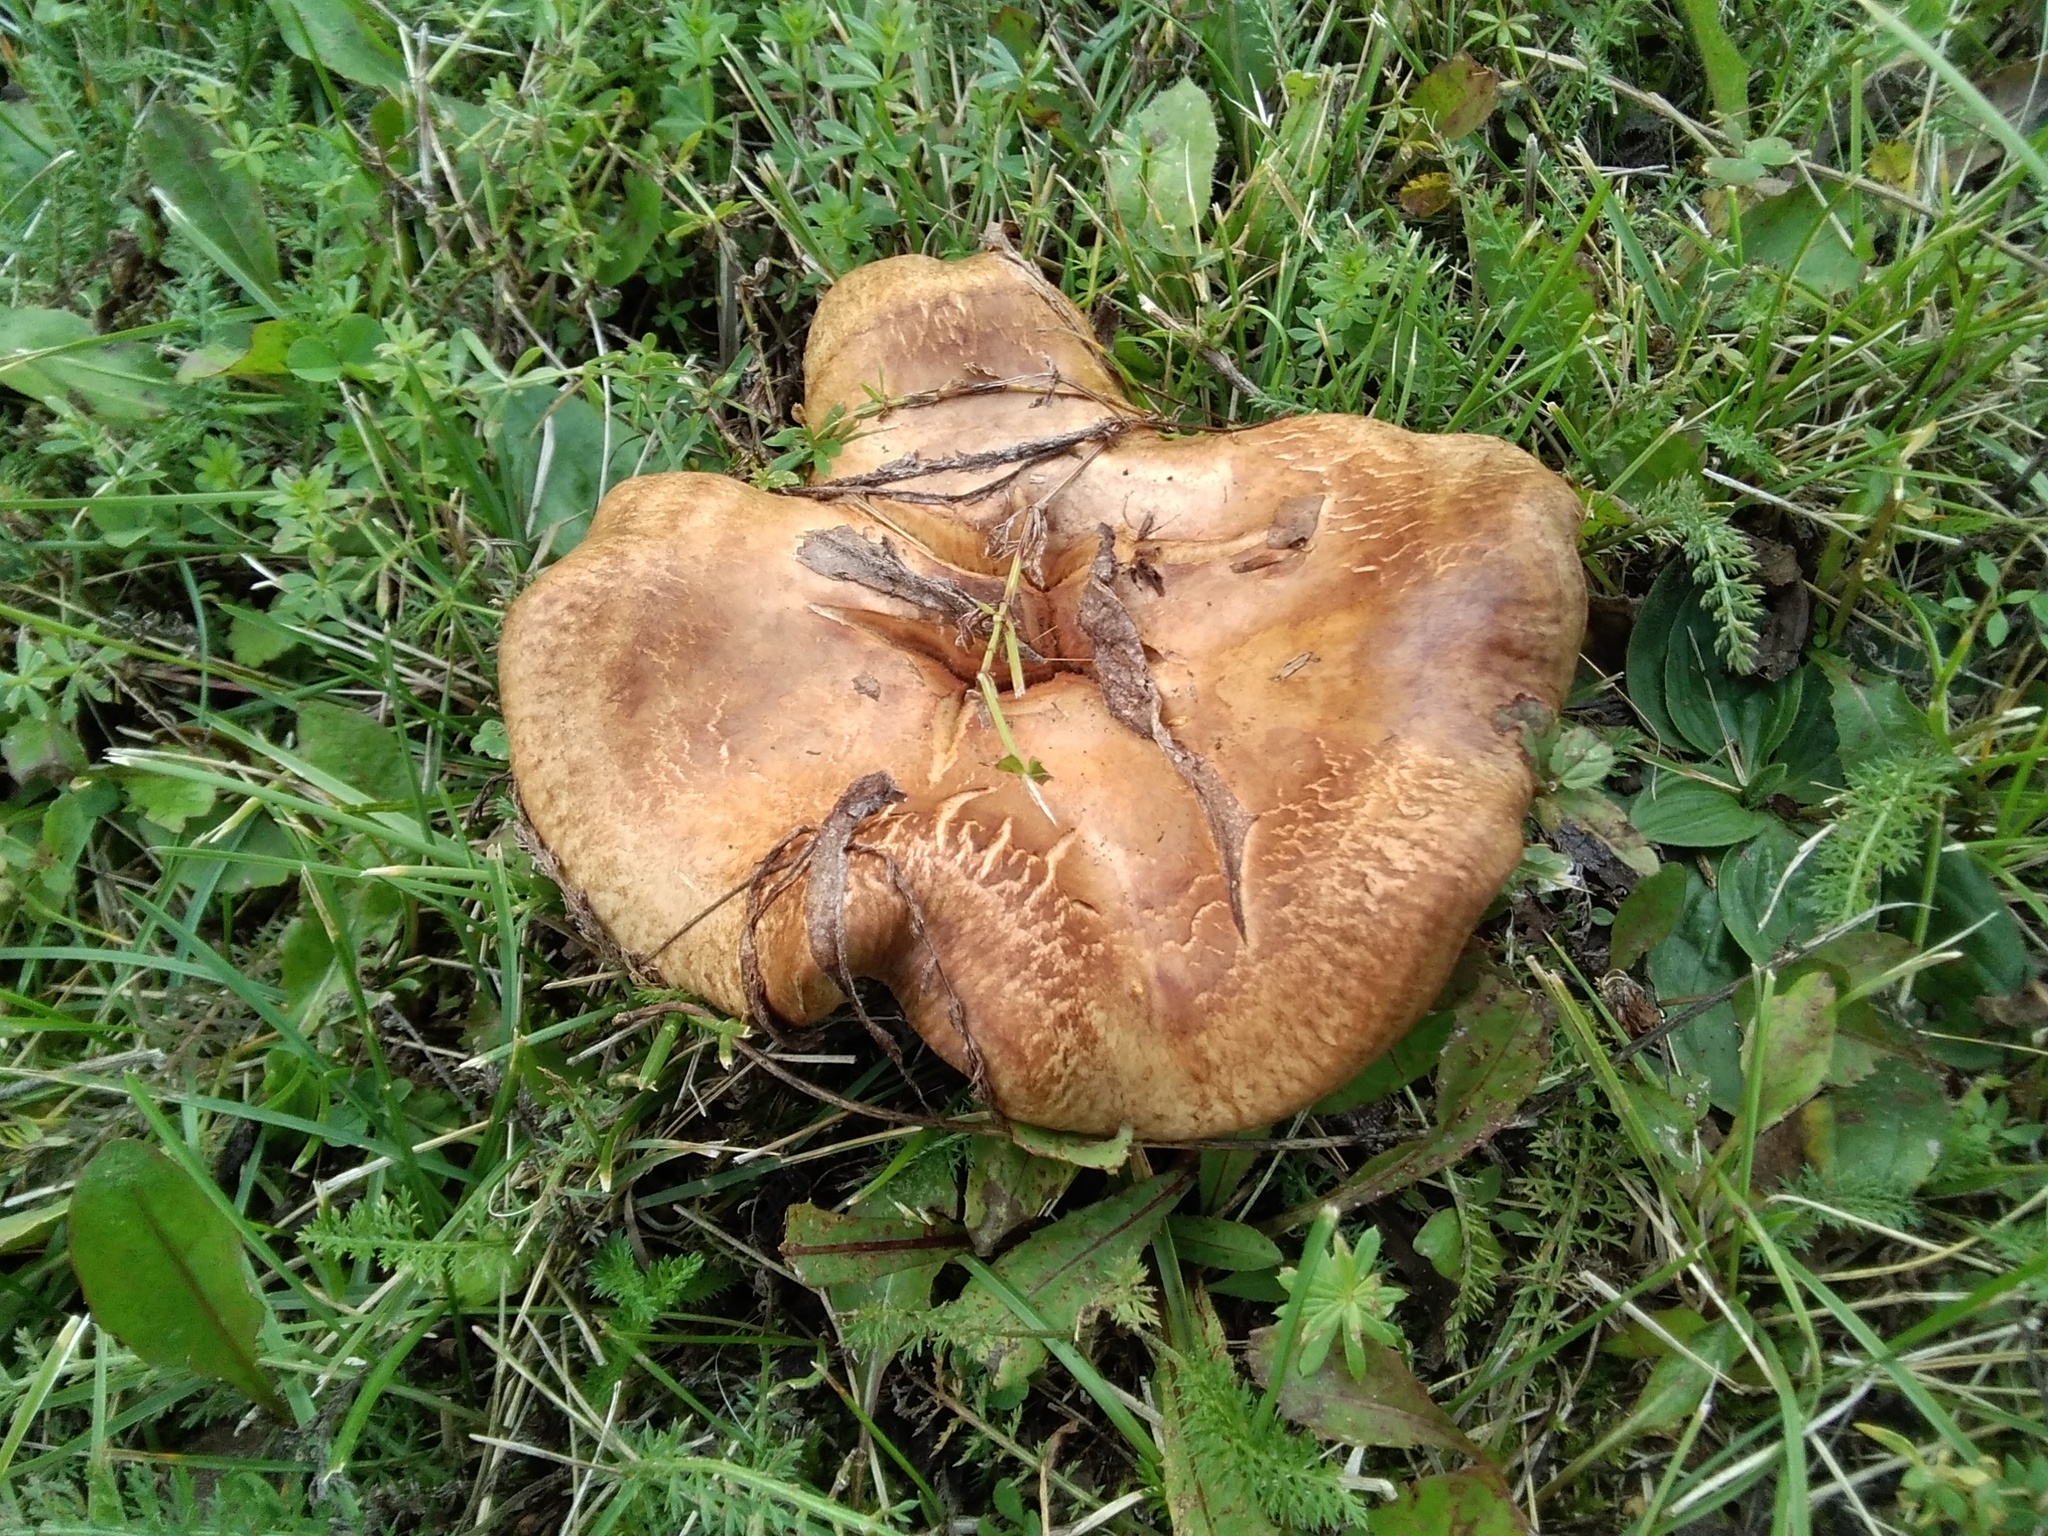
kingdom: Fungi
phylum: Basidiomycota
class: Agaricomycetes
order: Boletales
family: Paxillaceae
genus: Paxillus
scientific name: Paxillus involutus
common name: Brown roll rim
